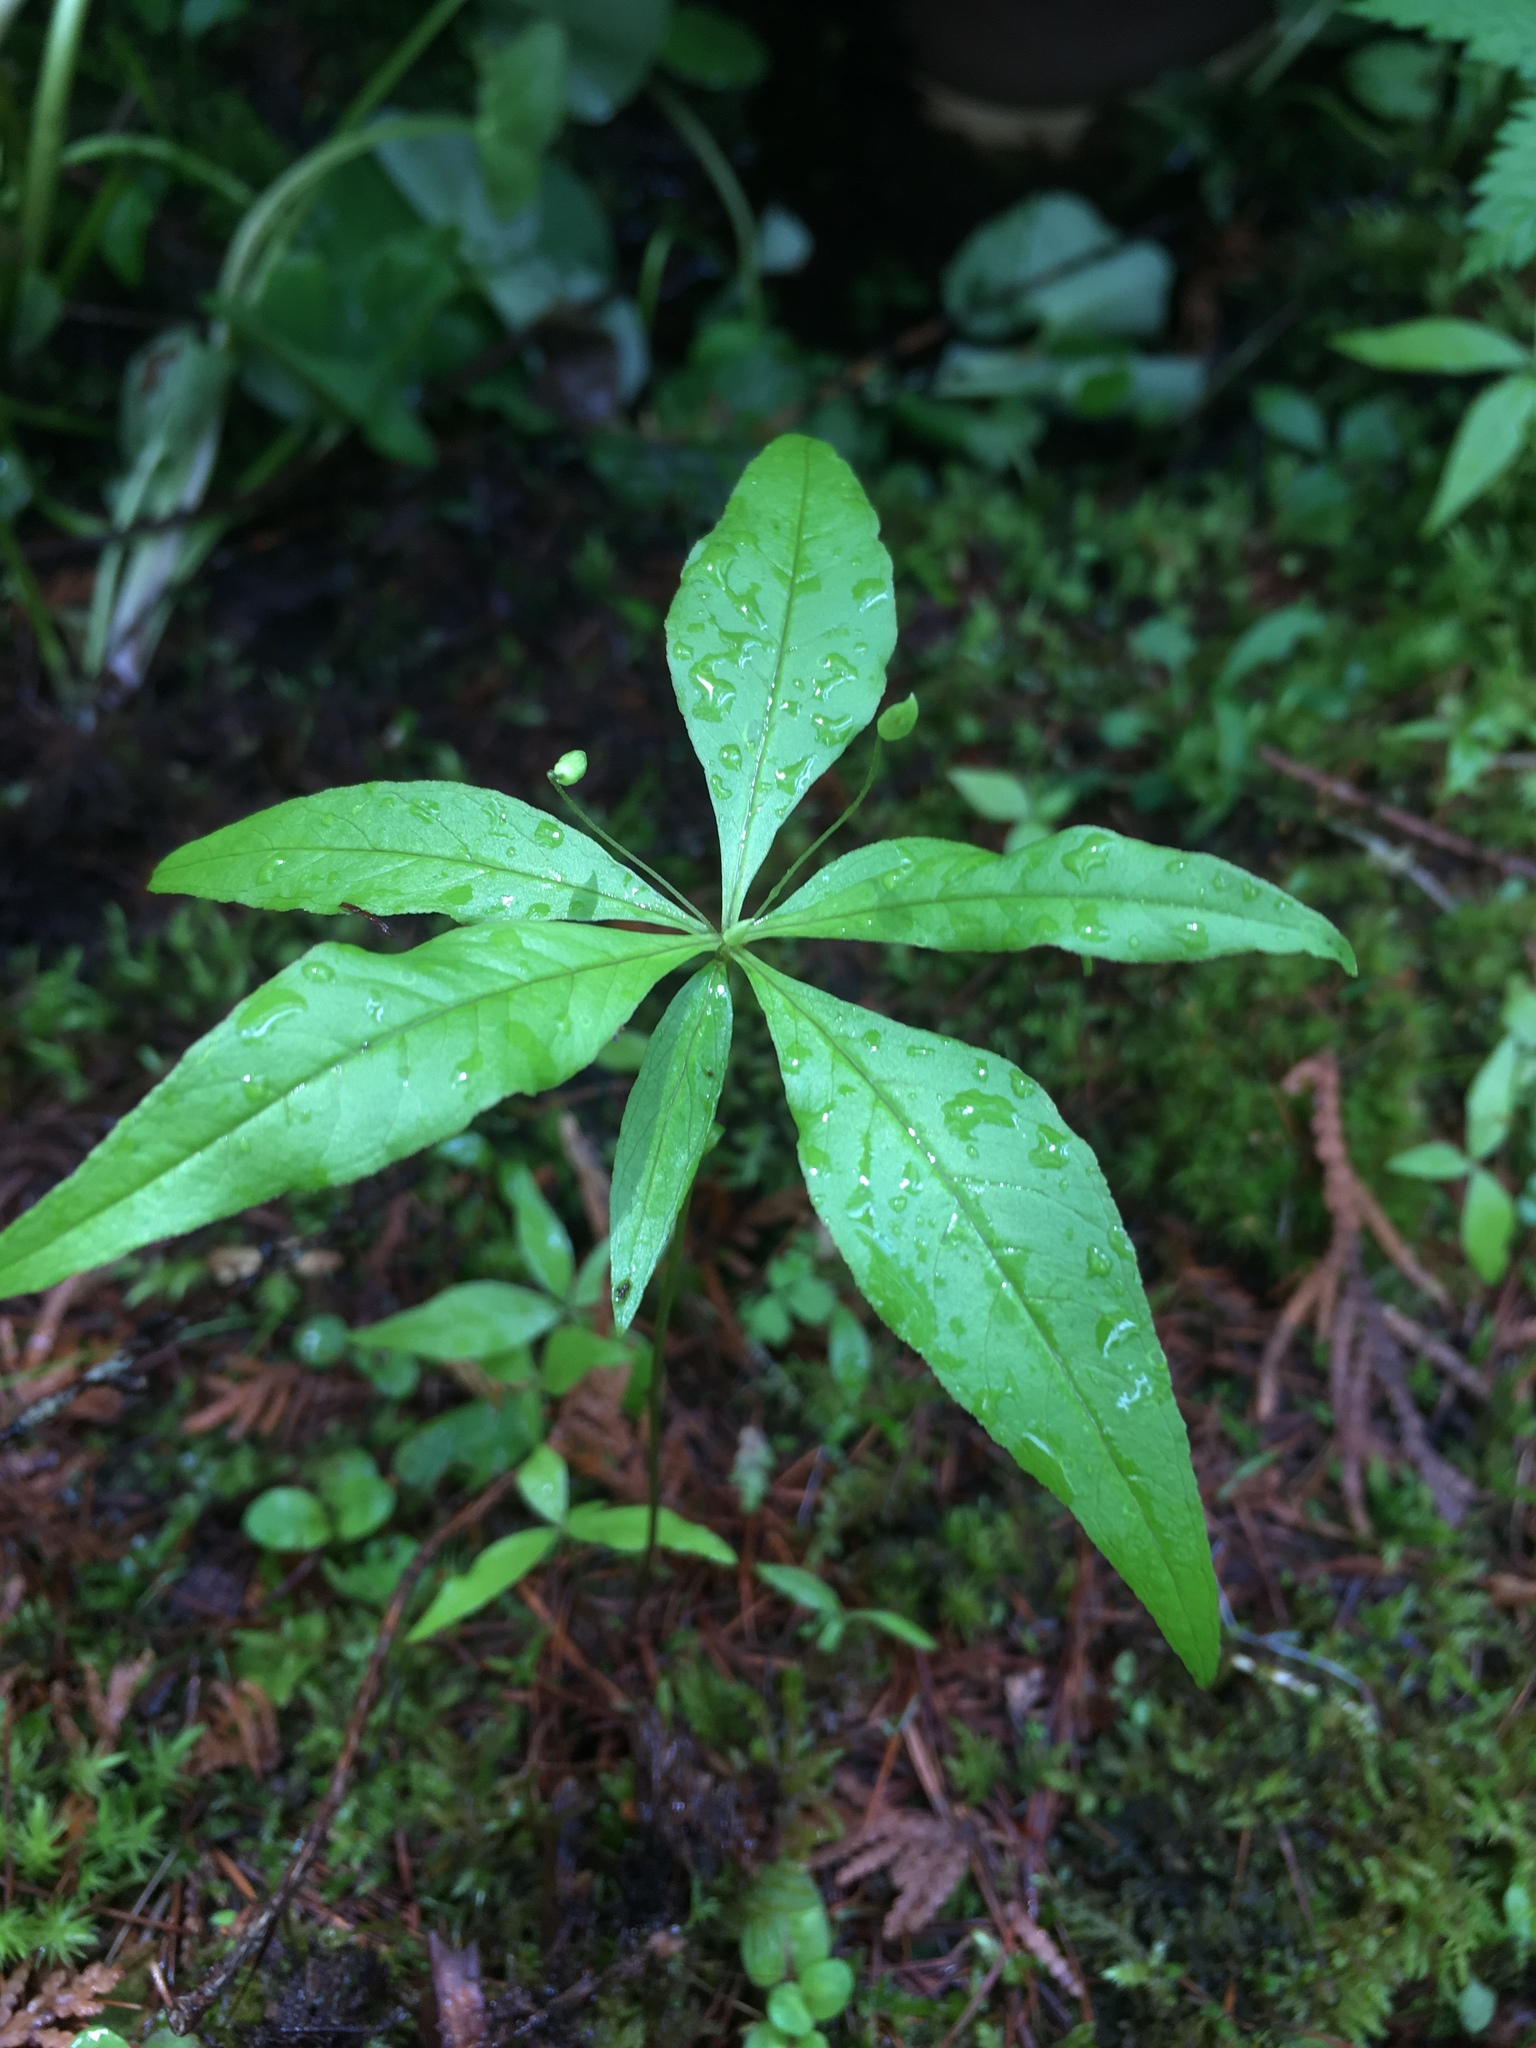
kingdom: Plantae
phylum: Tracheophyta
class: Magnoliopsida
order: Ericales
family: Primulaceae
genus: Lysimachia
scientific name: Lysimachia borealis
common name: American starflower
